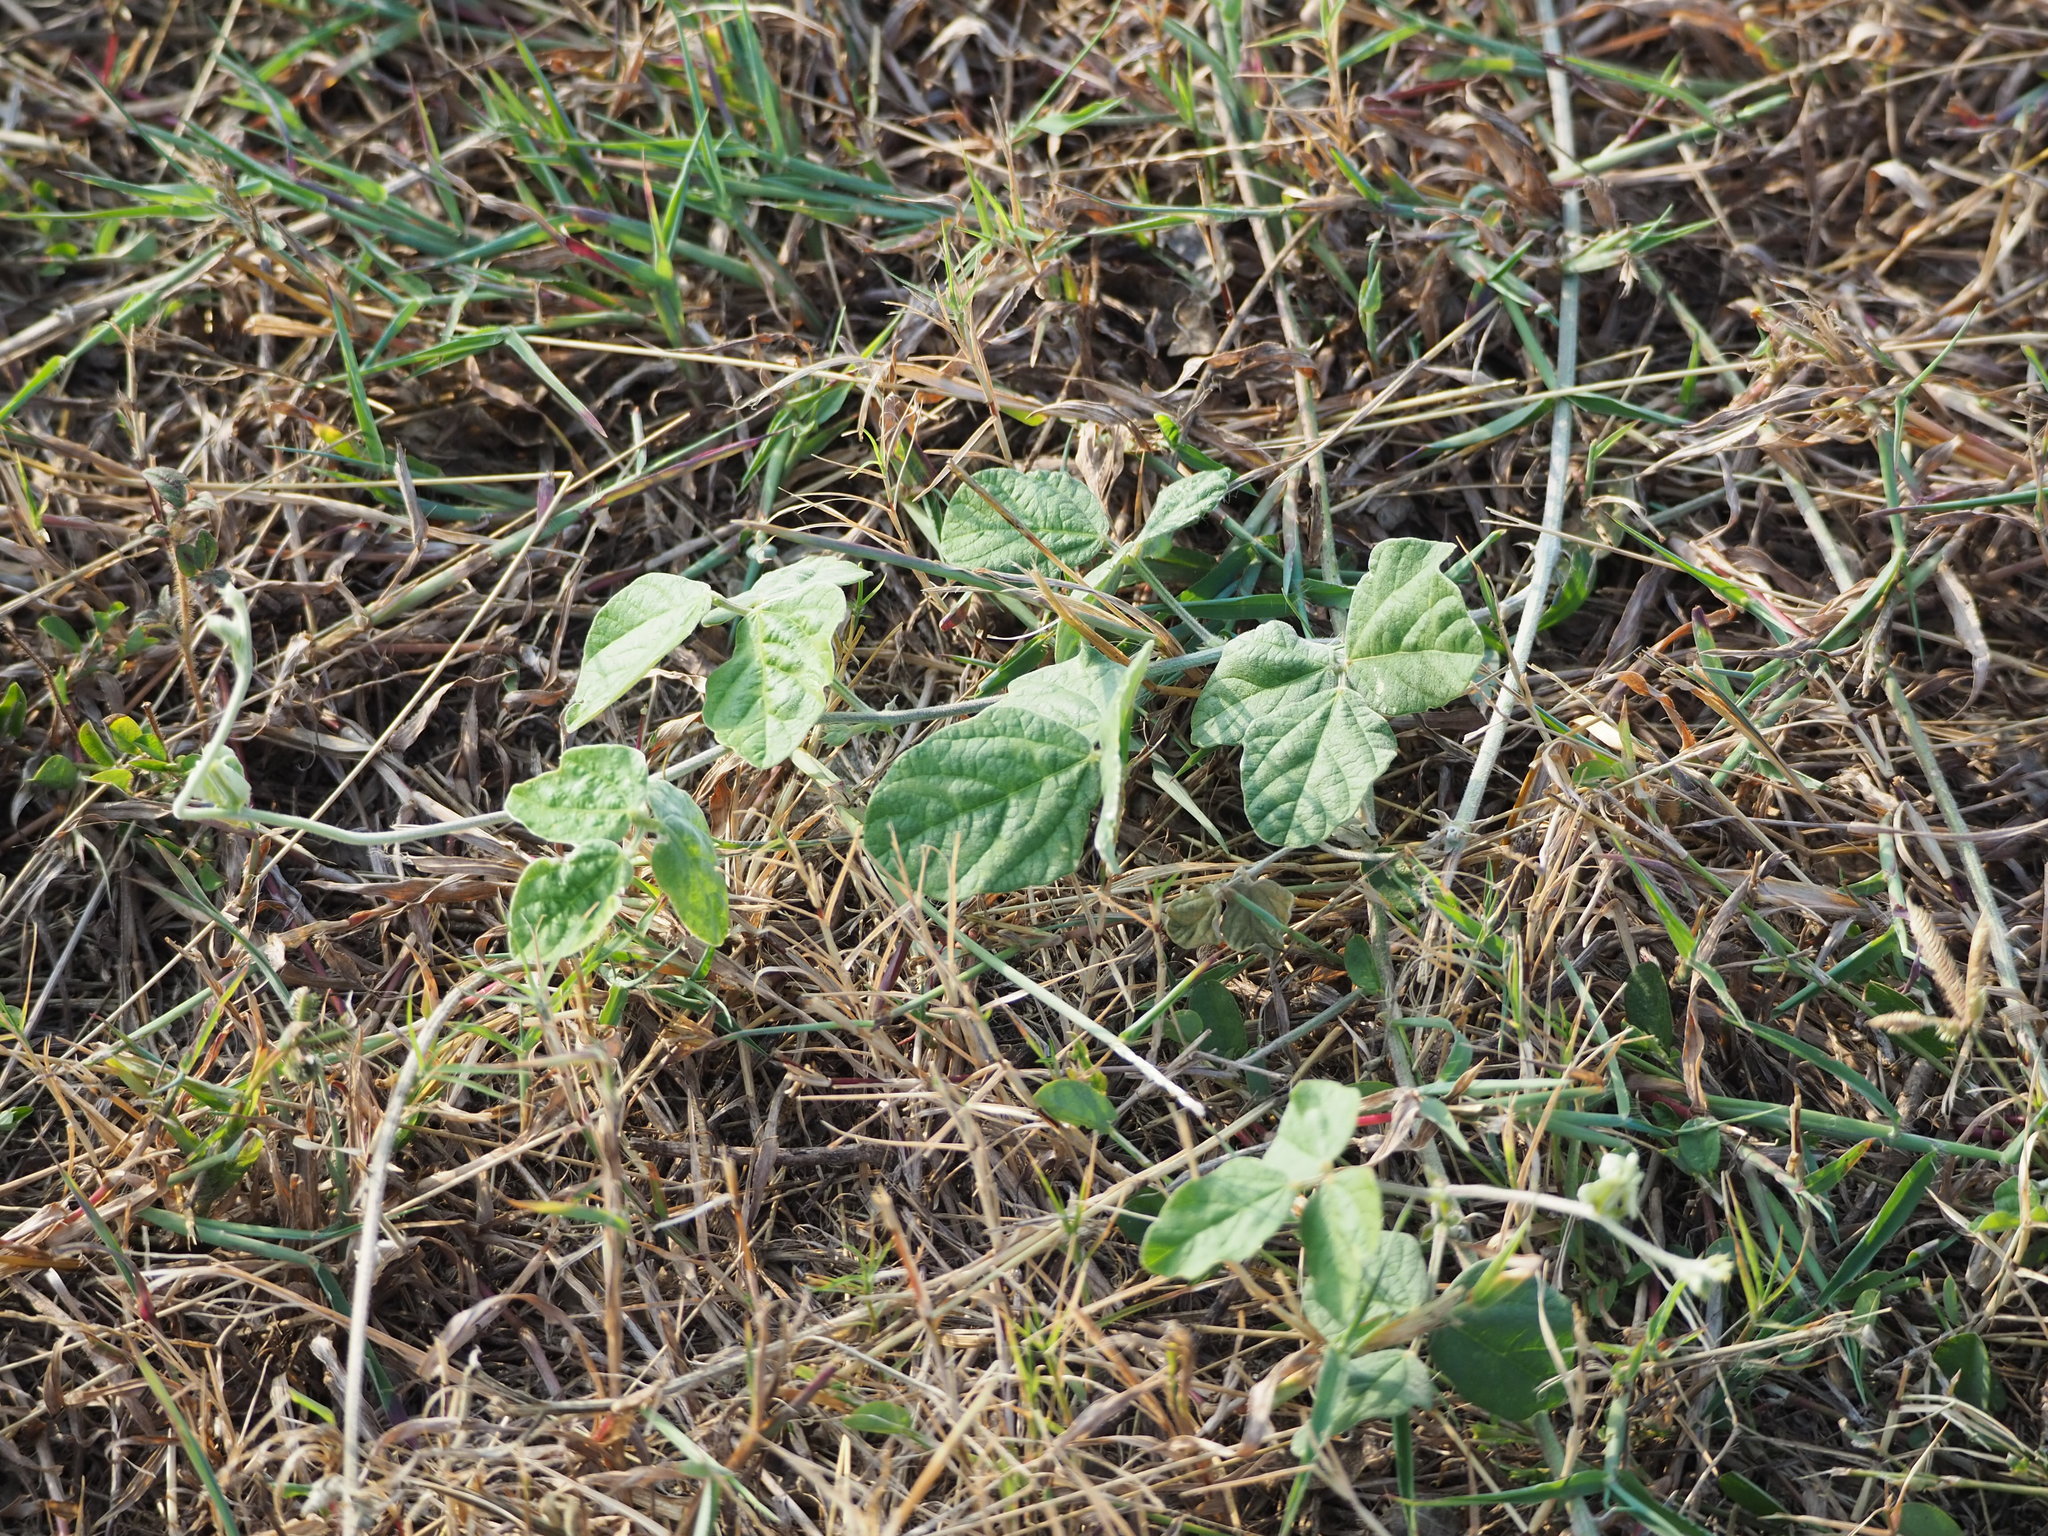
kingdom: Plantae
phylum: Tracheophyta
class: Magnoliopsida
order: Fabales
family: Fabaceae
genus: Macroptilium
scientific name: Macroptilium atropurpureum
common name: Purple bushbean
